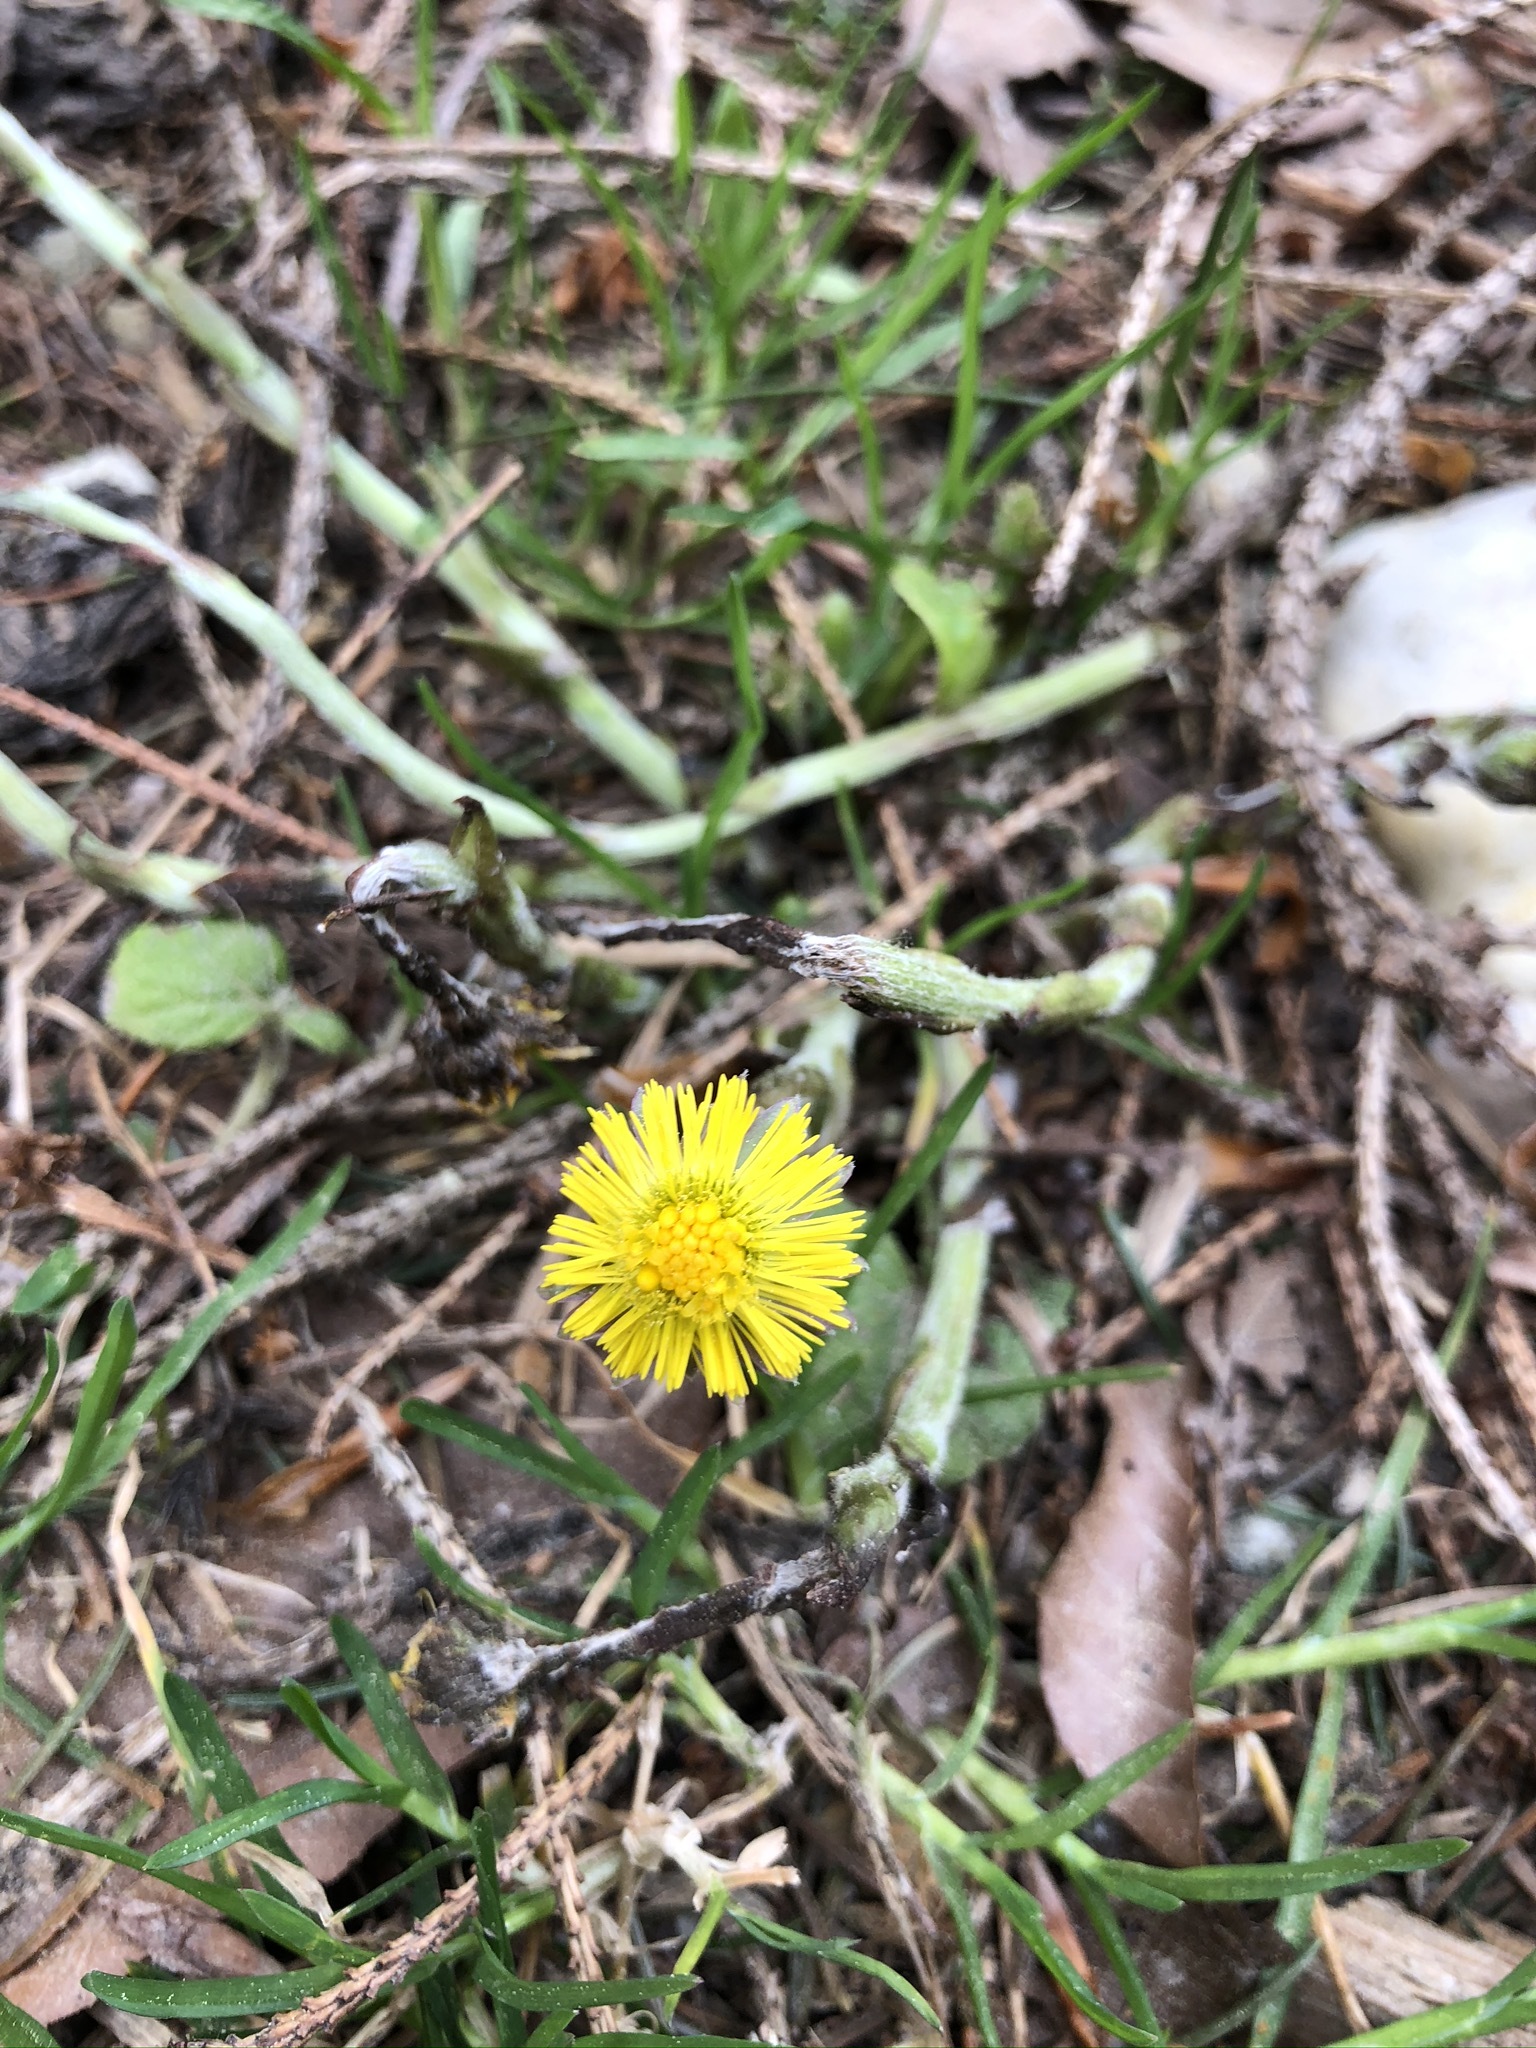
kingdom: Plantae
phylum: Tracheophyta
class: Magnoliopsida
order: Asterales
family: Asteraceae
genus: Tussilago
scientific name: Tussilago farfara
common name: Coltsfoot
